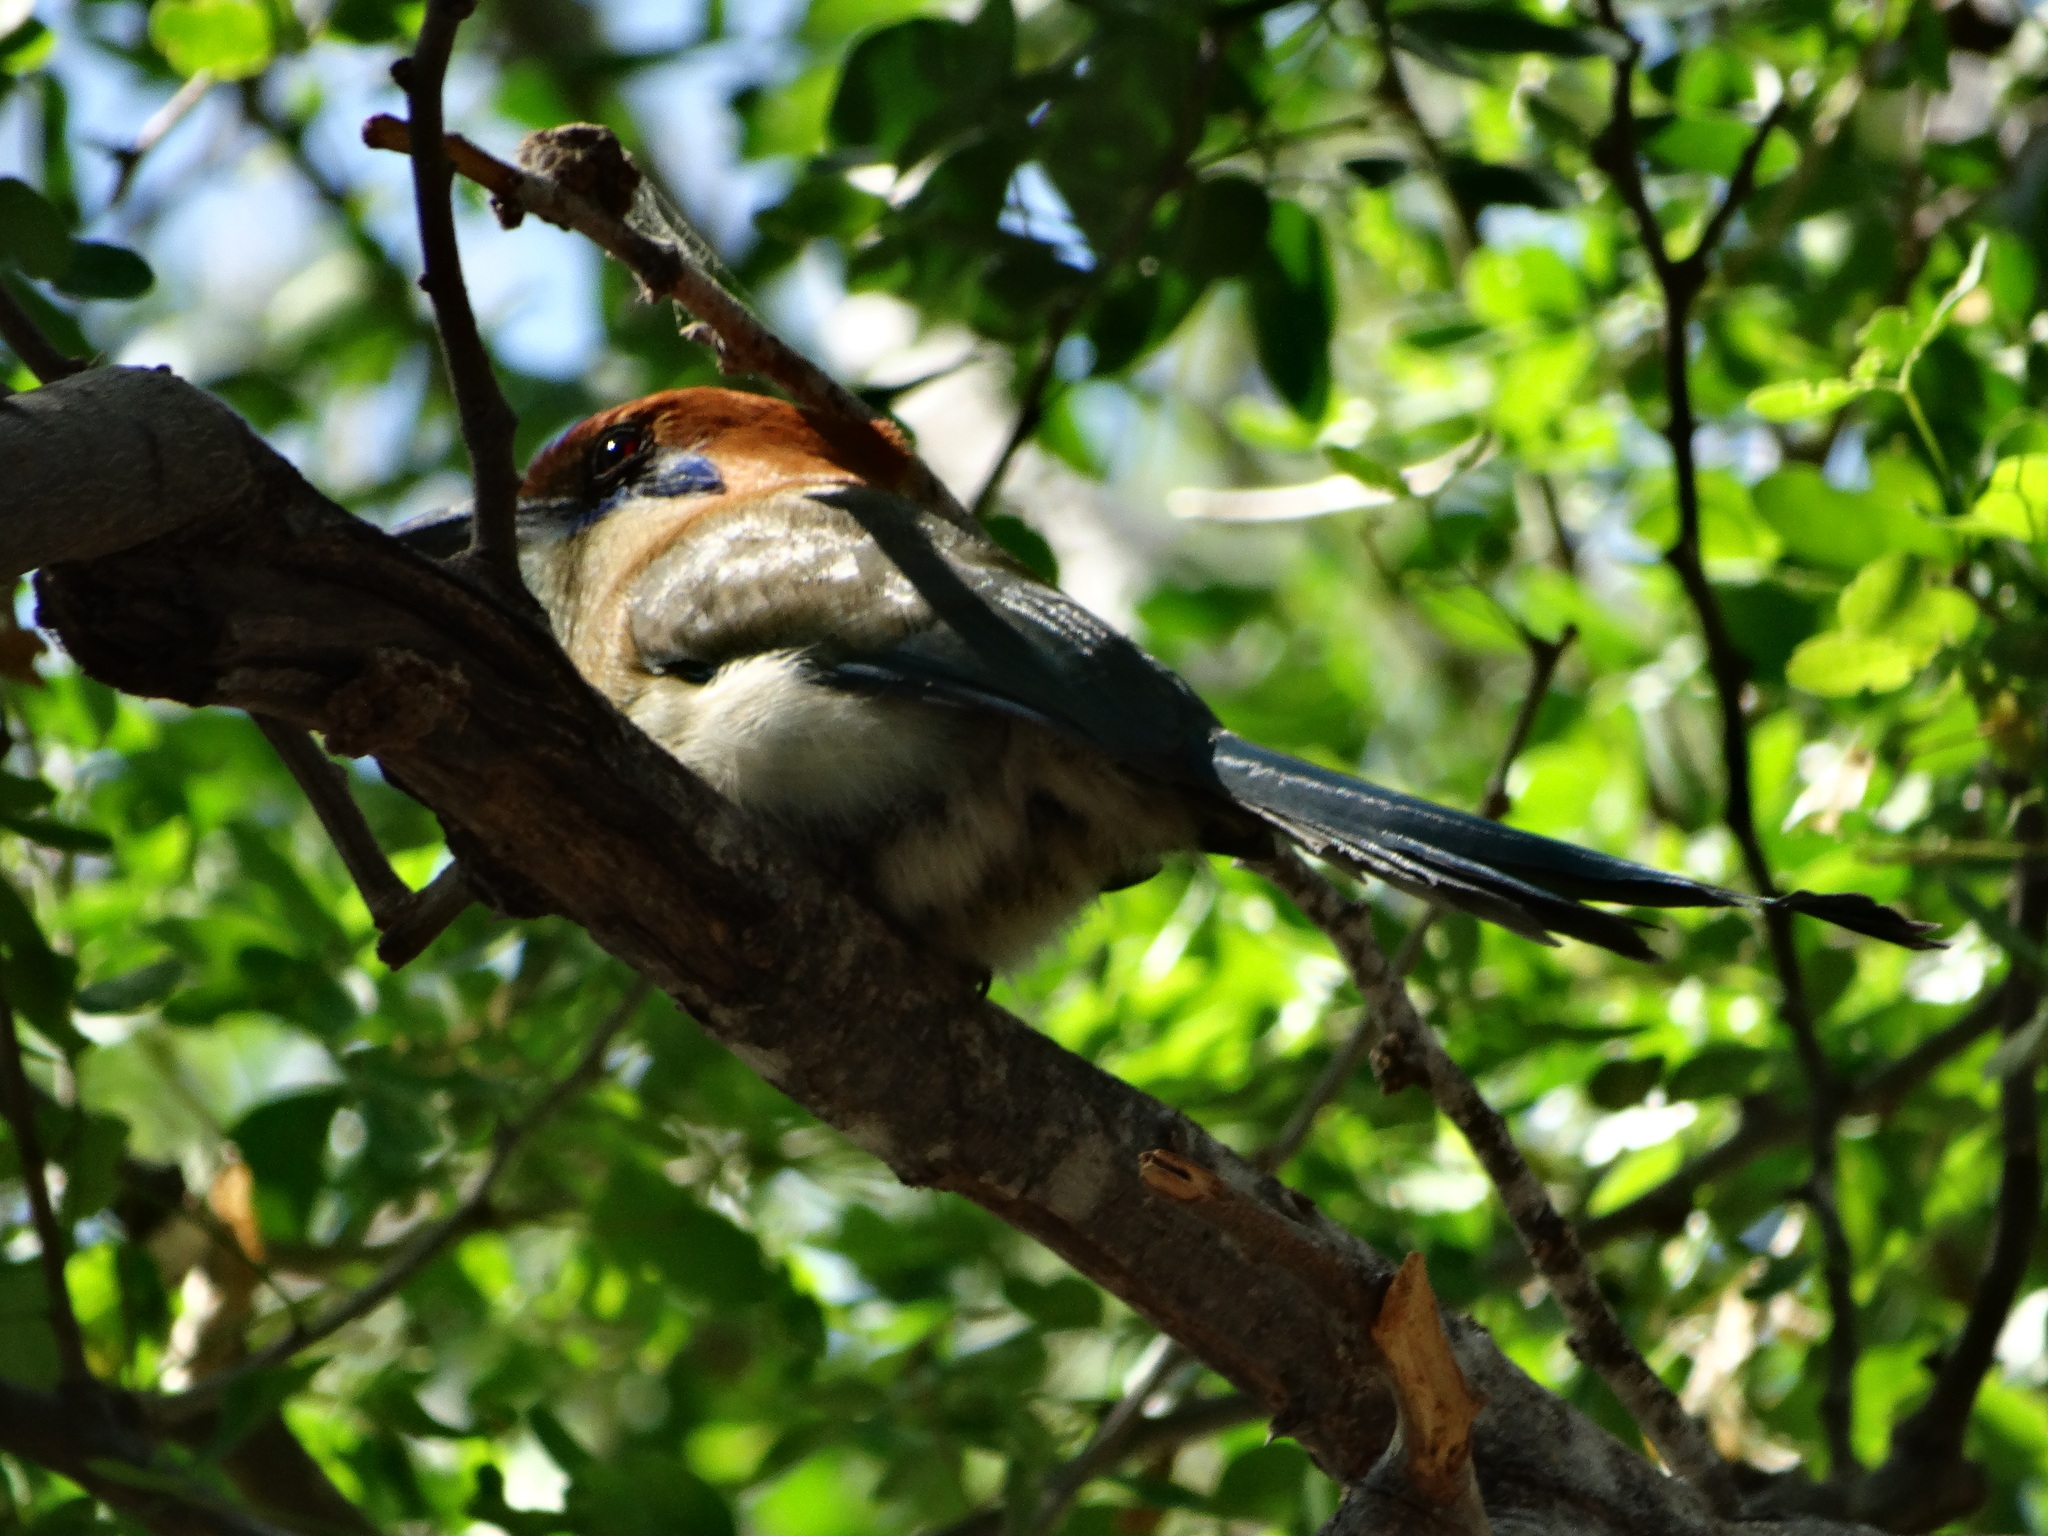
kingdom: Animalia
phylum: Chordata
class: Aves
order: Coraciiformes
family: Momotidae
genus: Momotus
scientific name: Momotus mexicanus
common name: Russet-crowned motmot
